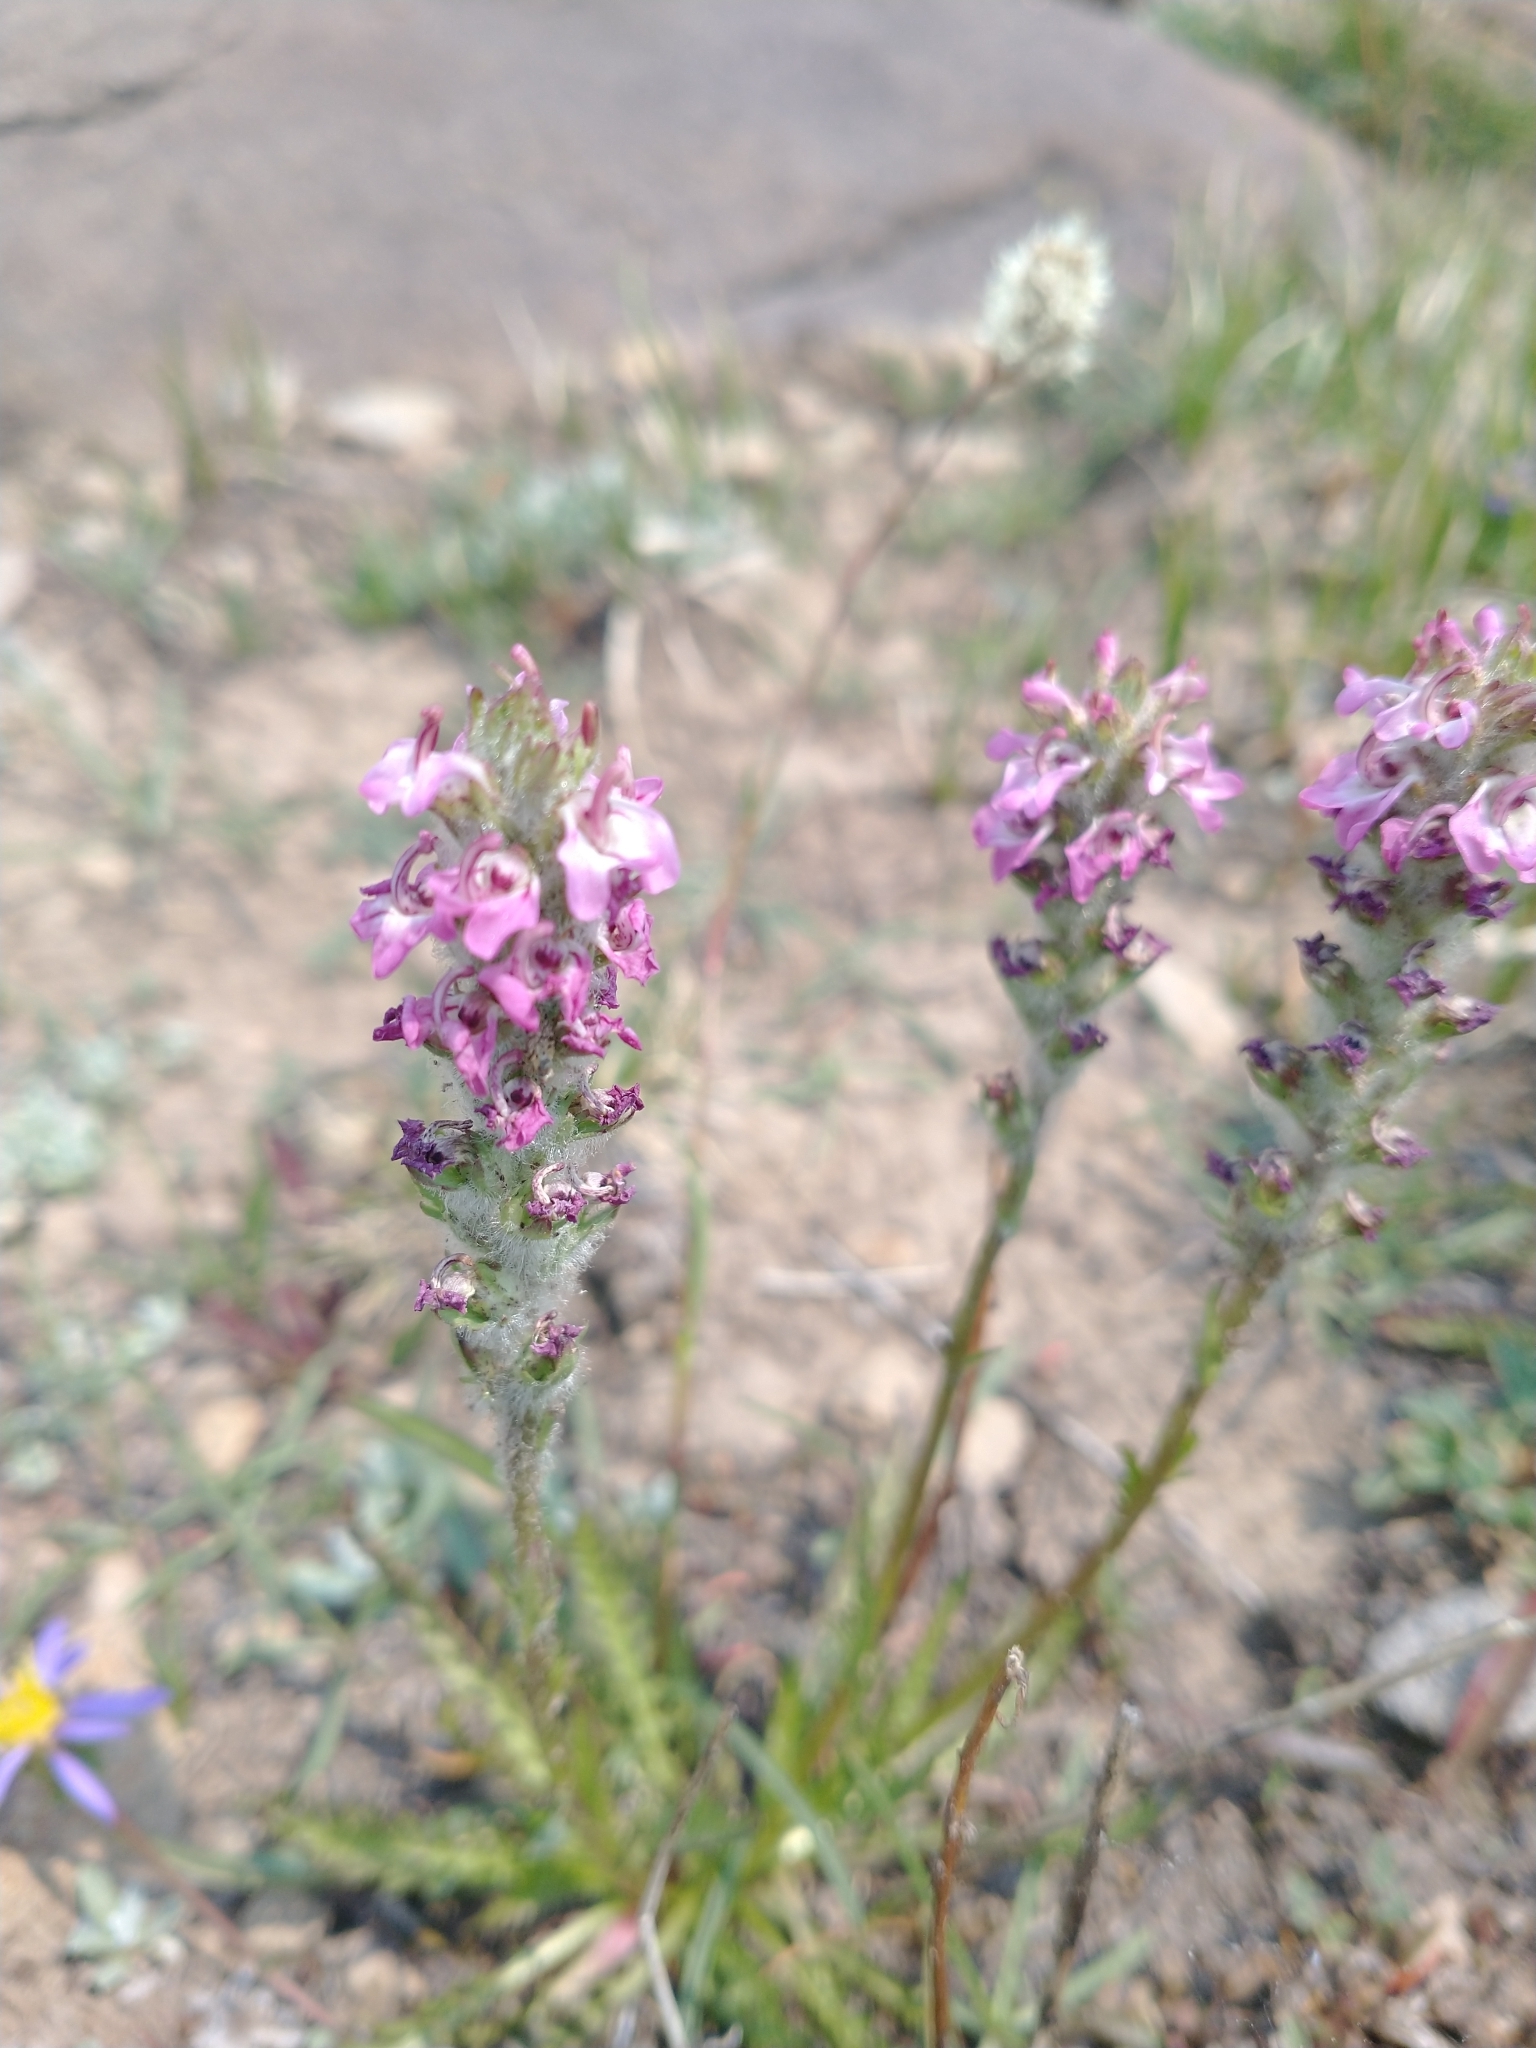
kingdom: Plantae
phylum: Tracheophyta
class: Magnoliopsida
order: Lamiales
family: Orobanchaceae
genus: Pedicularis
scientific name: Pedicularis attollens
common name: Slender pedicularis
